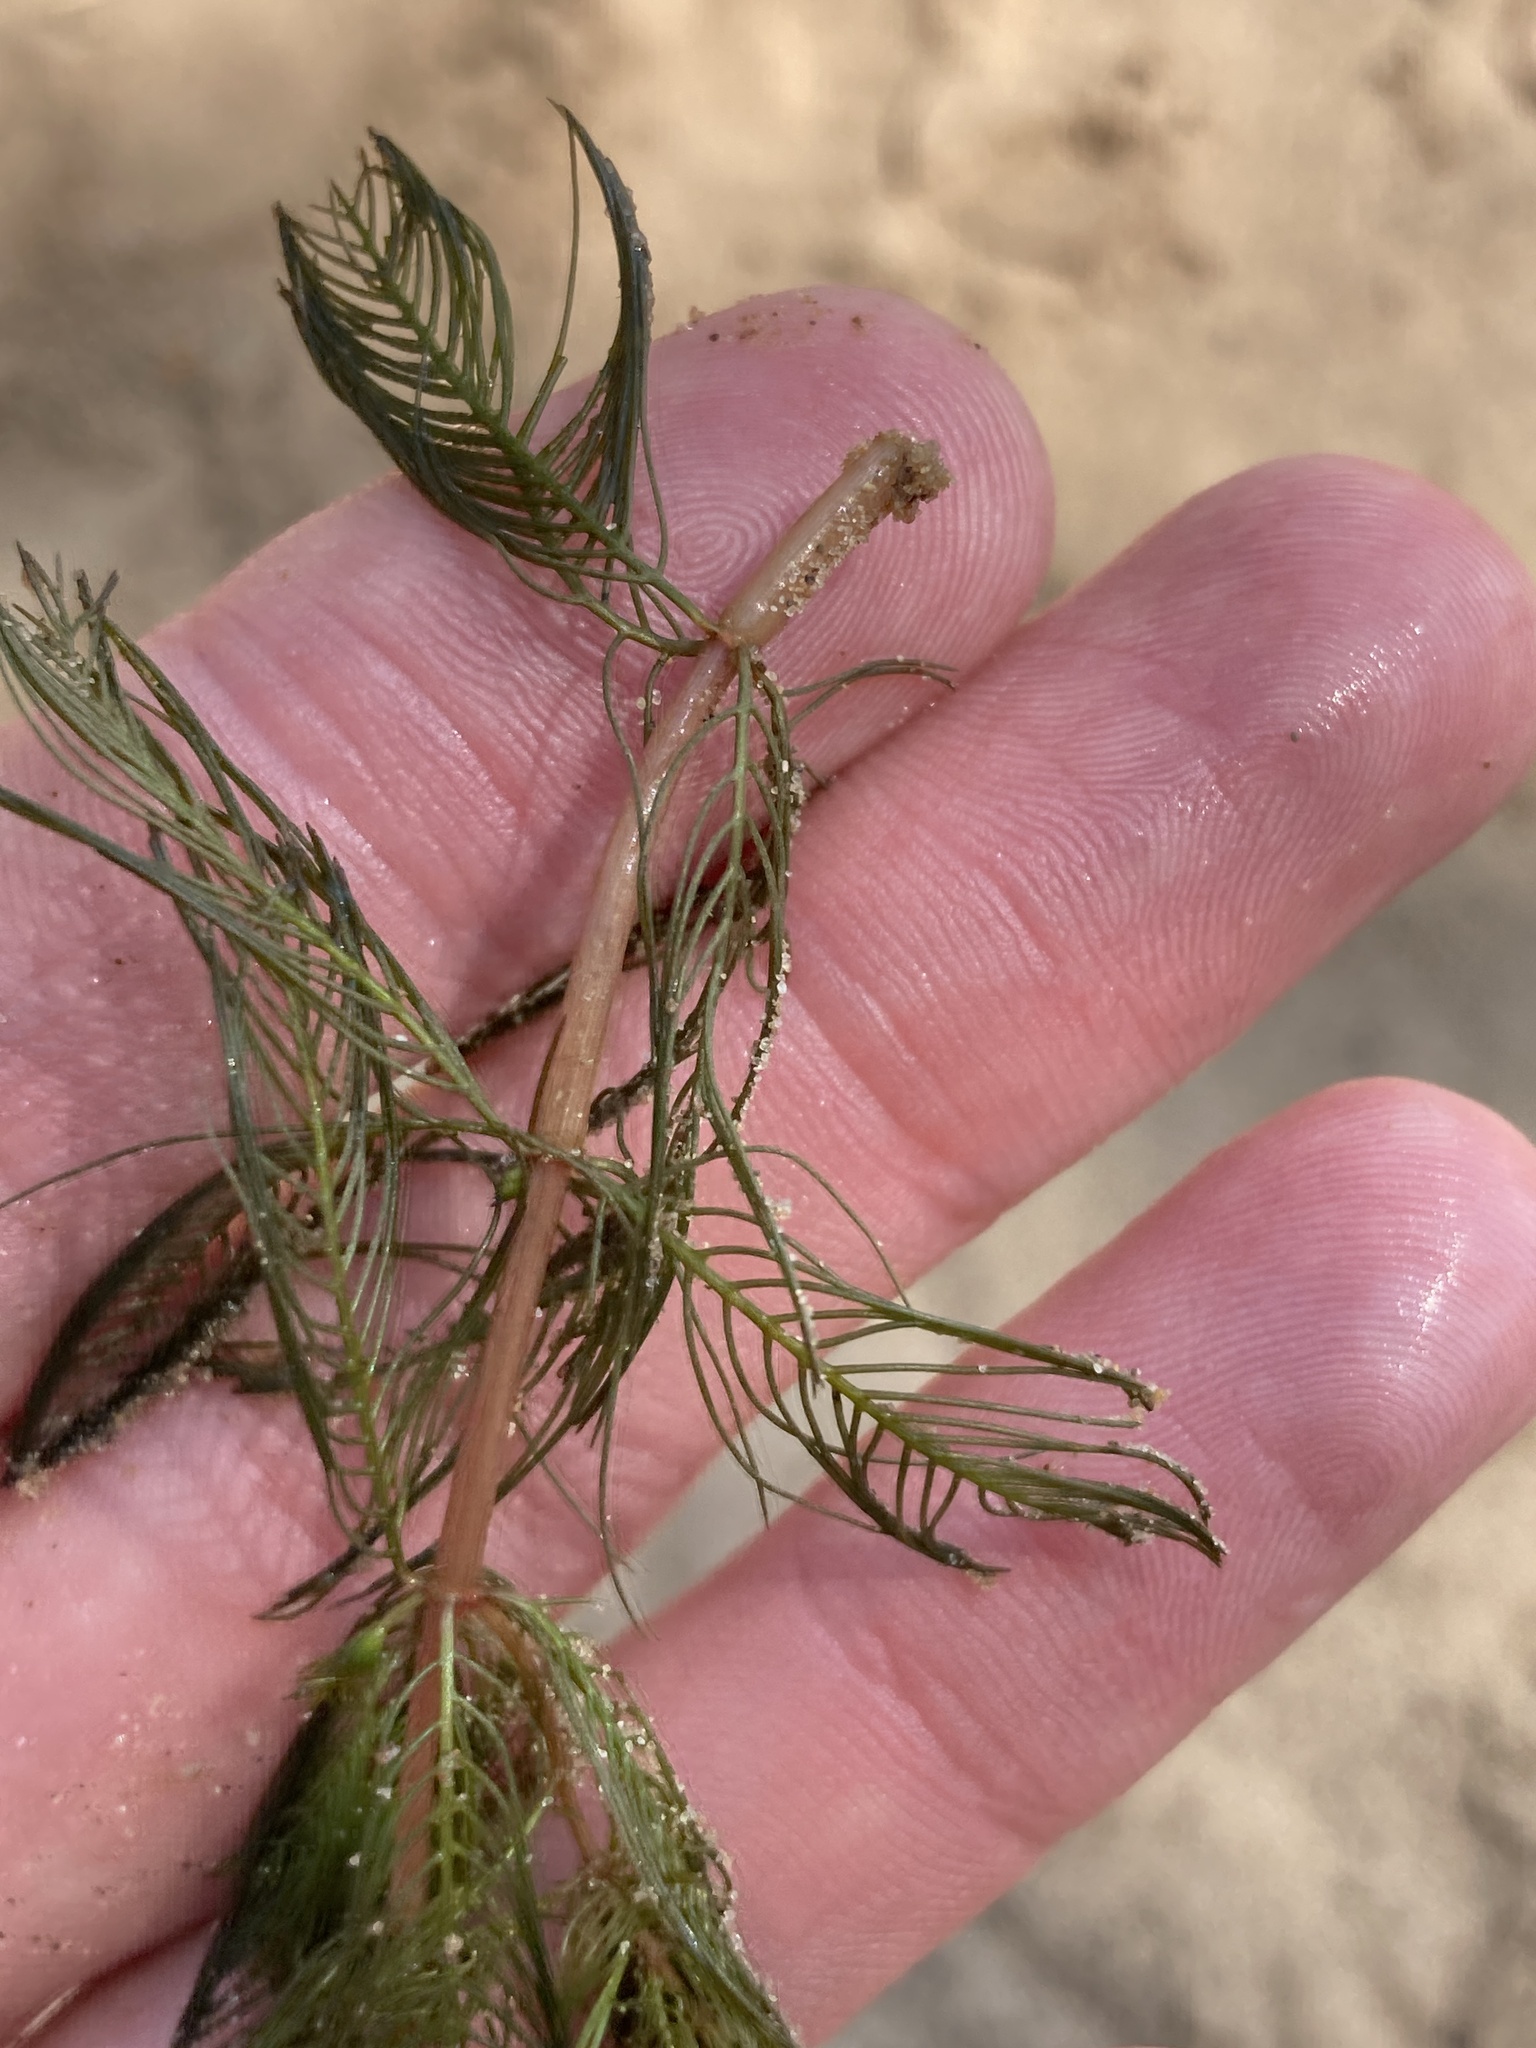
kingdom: Plantae
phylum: Tracheophyta
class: Magnoliopsida
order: Saxifragales
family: Haloragaceae
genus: Myriophyllum
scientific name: Myriophyllum spicatum
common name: Spiked water-milfoil
